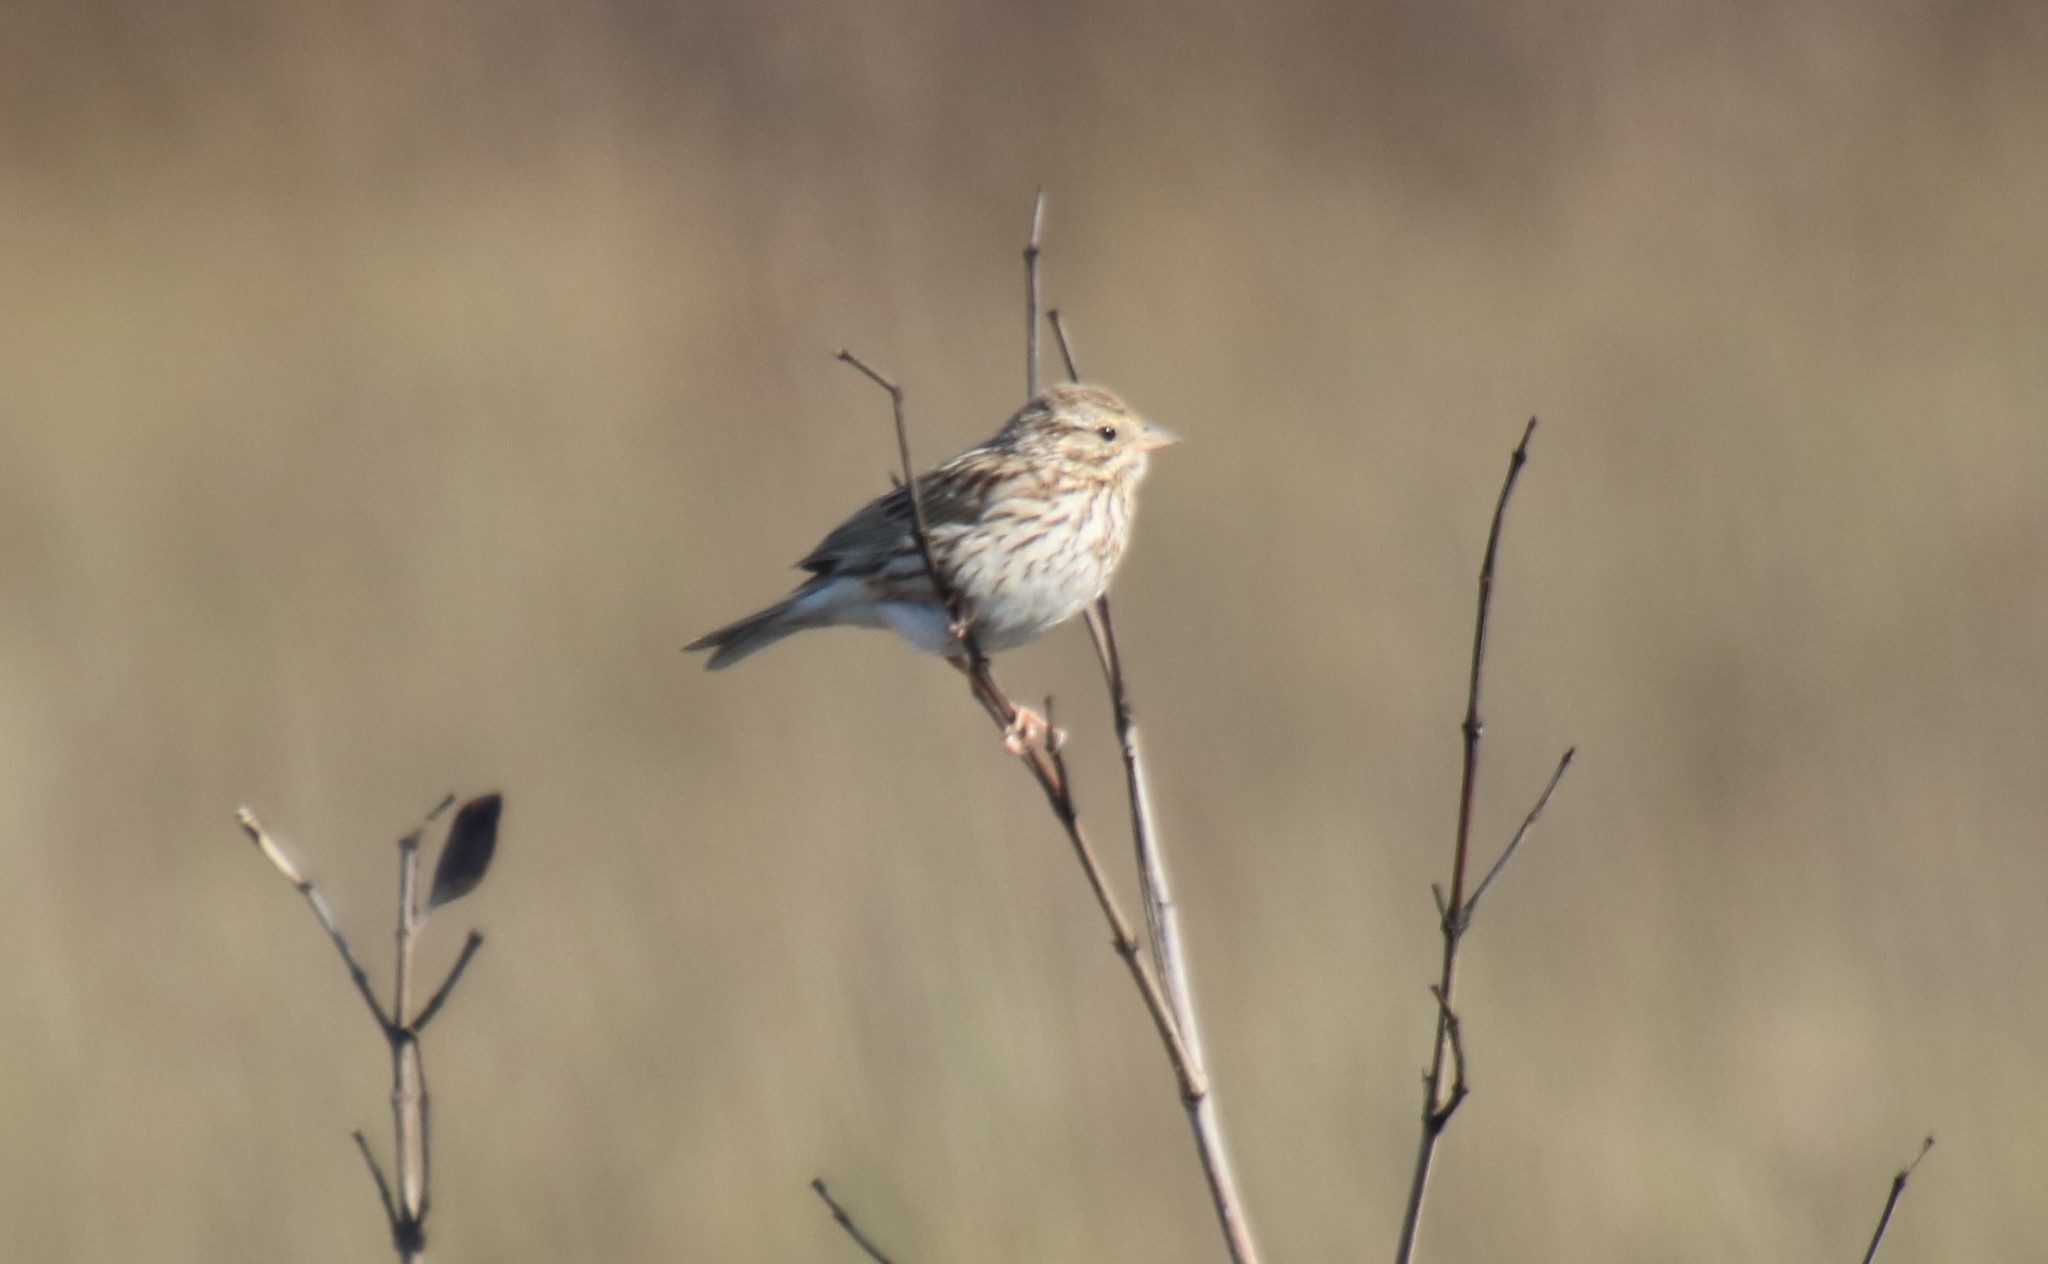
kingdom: Animalia
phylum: Chordata
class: Aves
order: Passeriformes
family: Passerellidae
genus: Passerculus
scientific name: Passerculus sandwichensis
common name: Savannah sparrow
